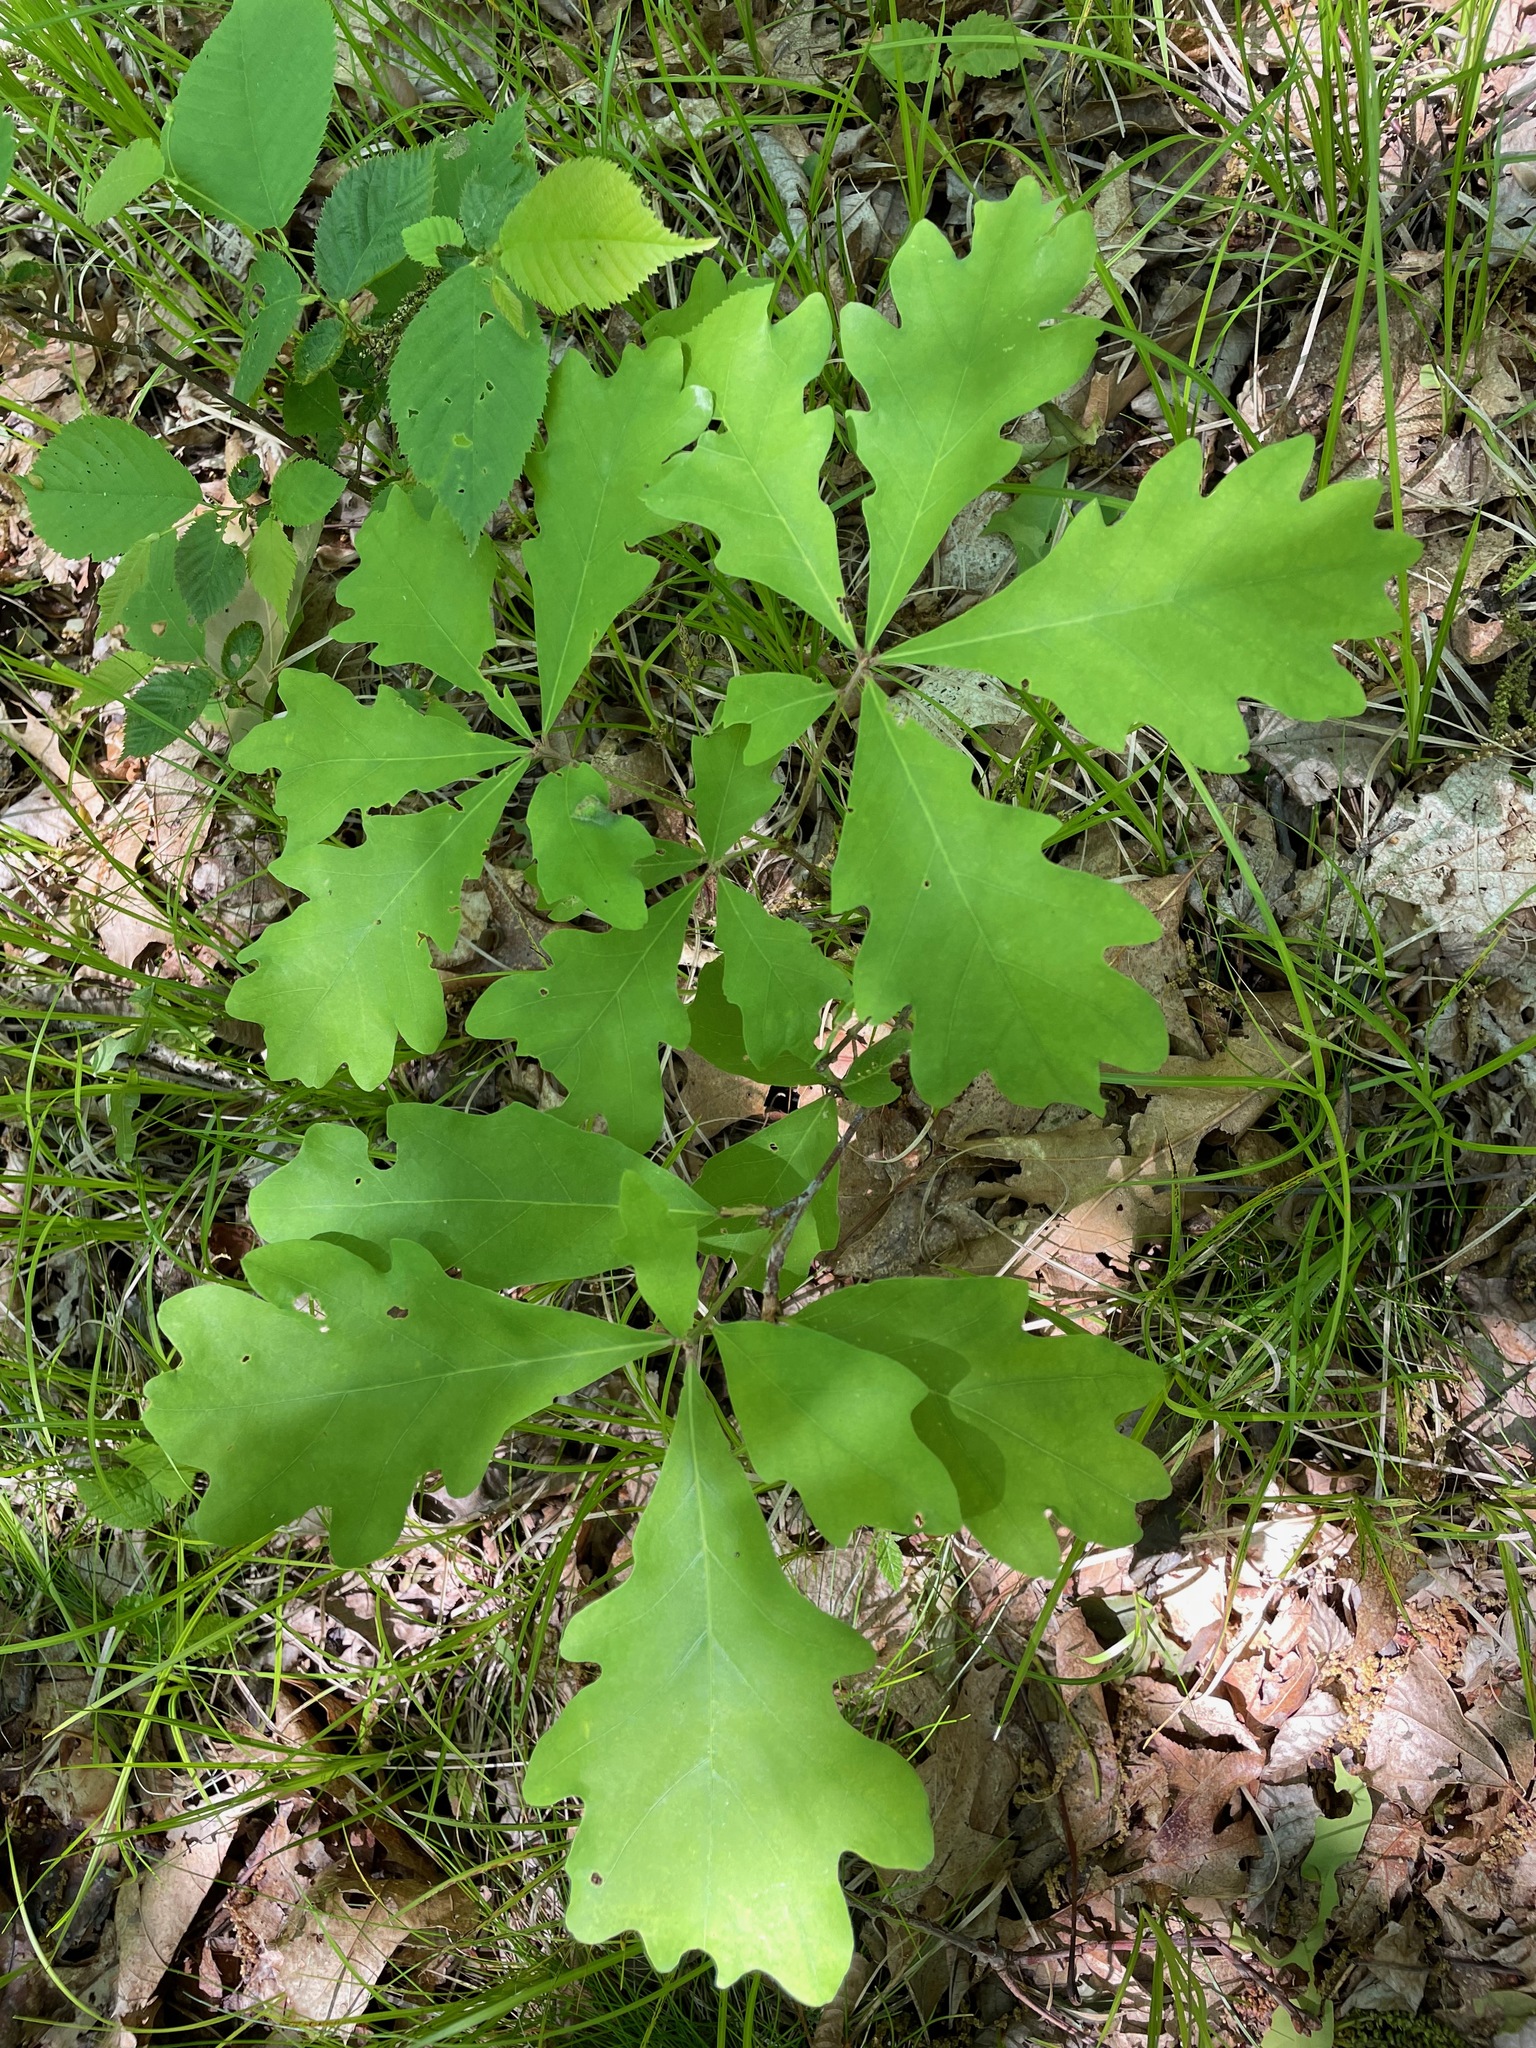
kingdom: Plantae
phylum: Tracheophyta
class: Magnoliopsida
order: Fagales
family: Fagaceae
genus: Quercus
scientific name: Quercus alba
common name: White oak
